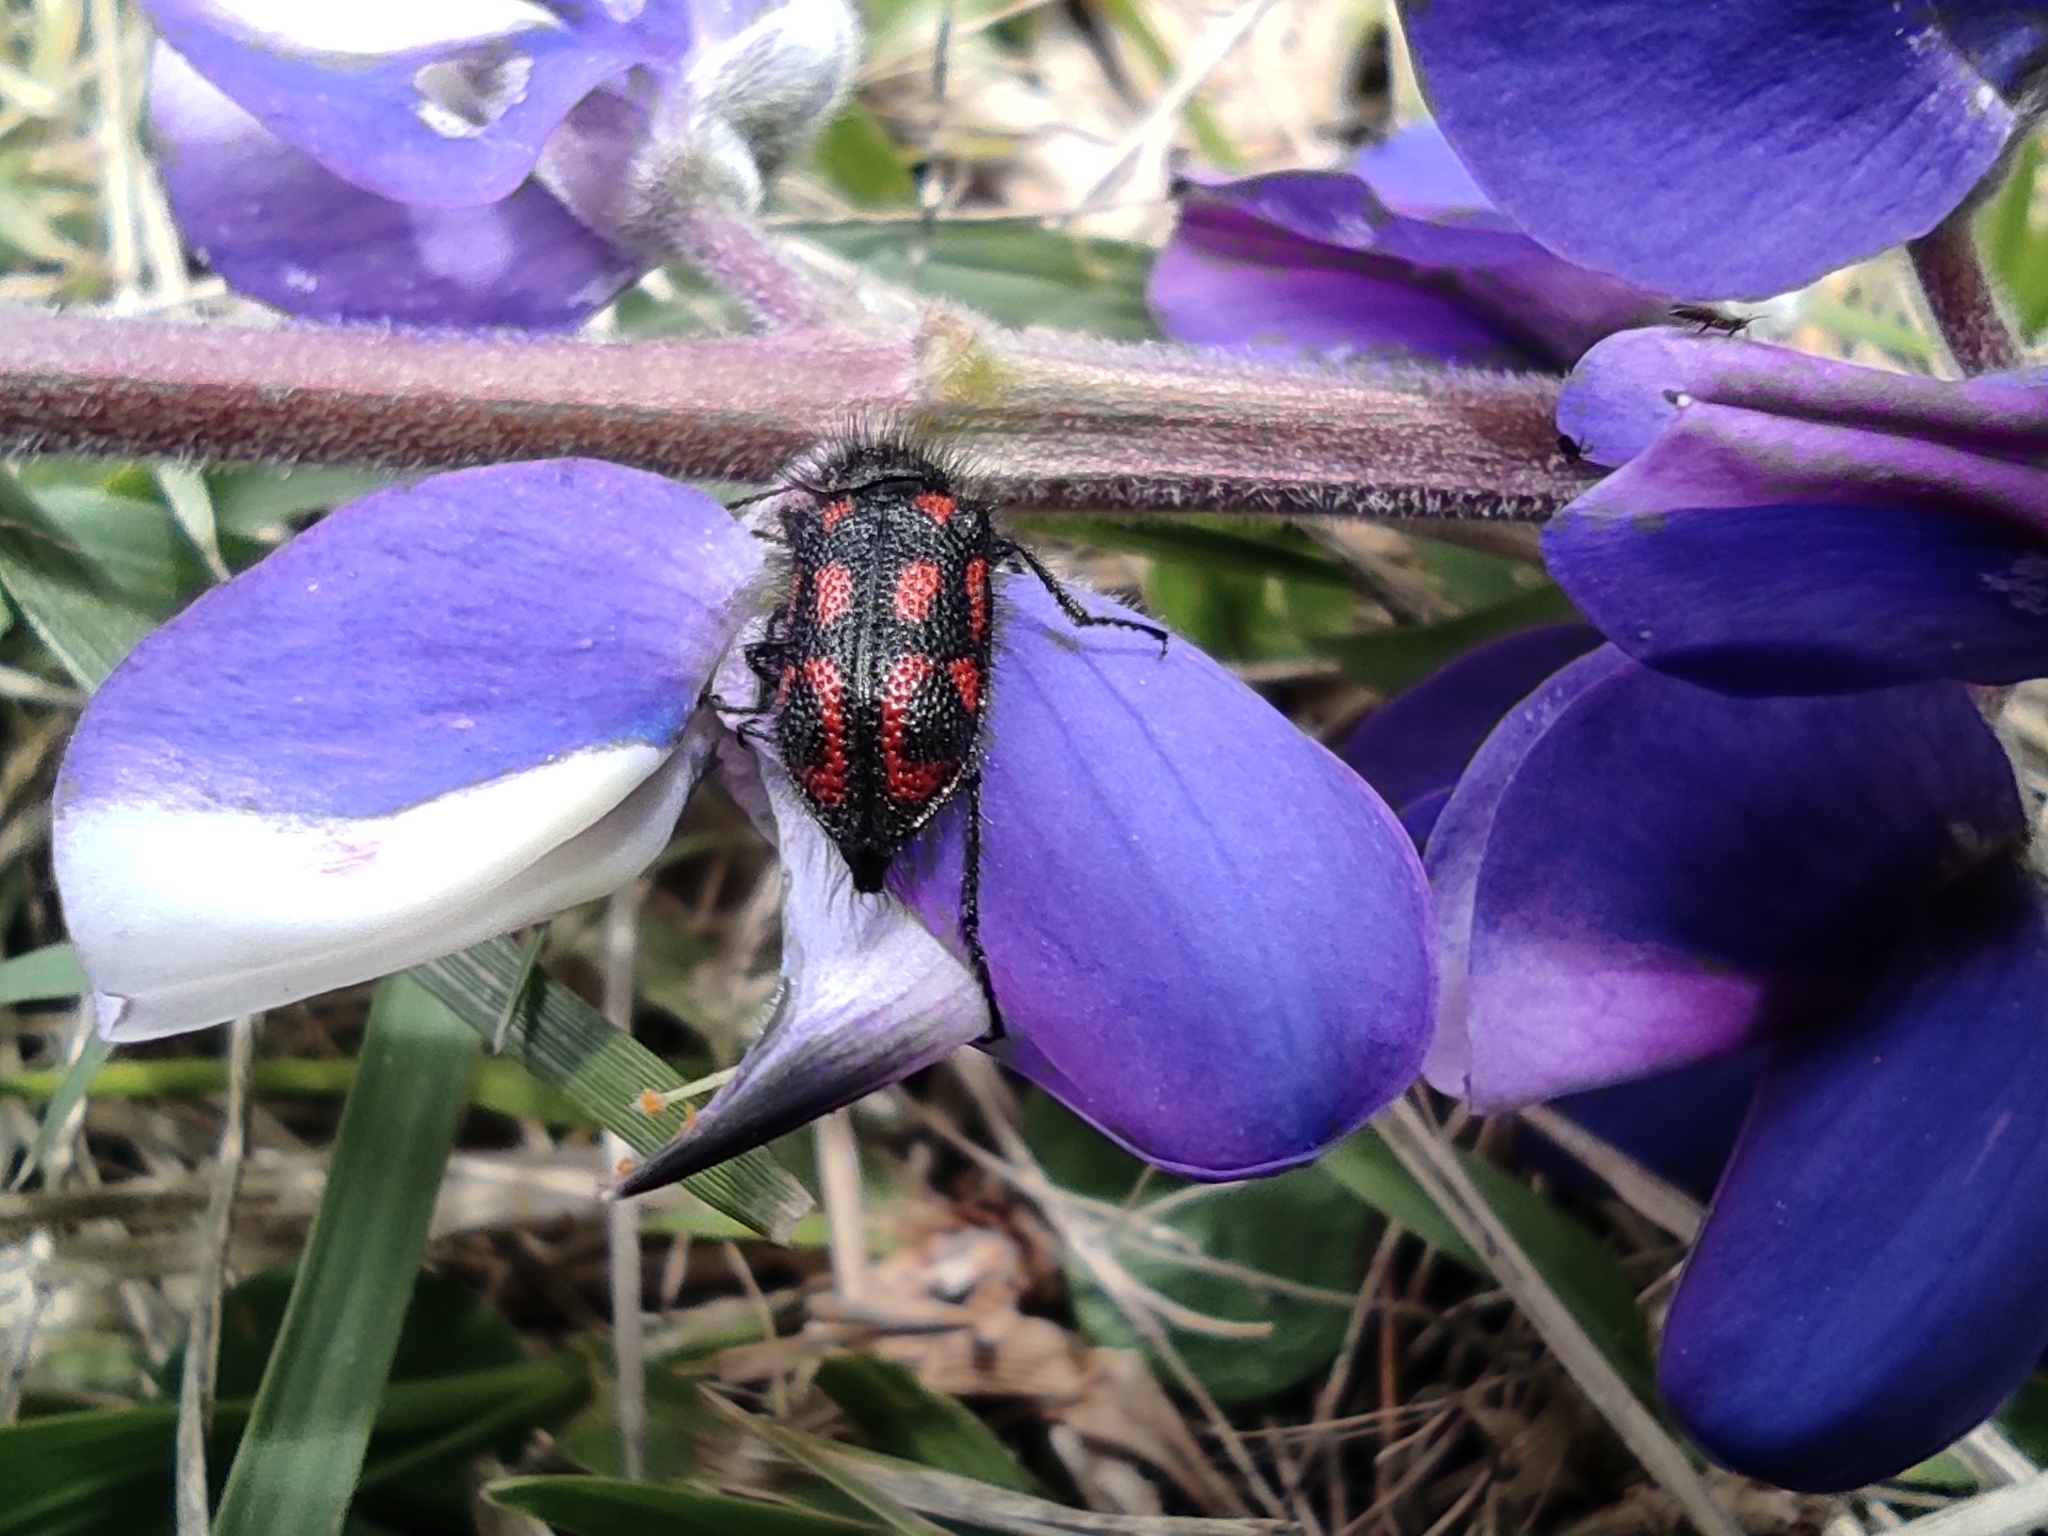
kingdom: Animalia
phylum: Arthropoda
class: Insecta
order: Coleoptera
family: Melyridae
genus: Astylus
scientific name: Astylus
